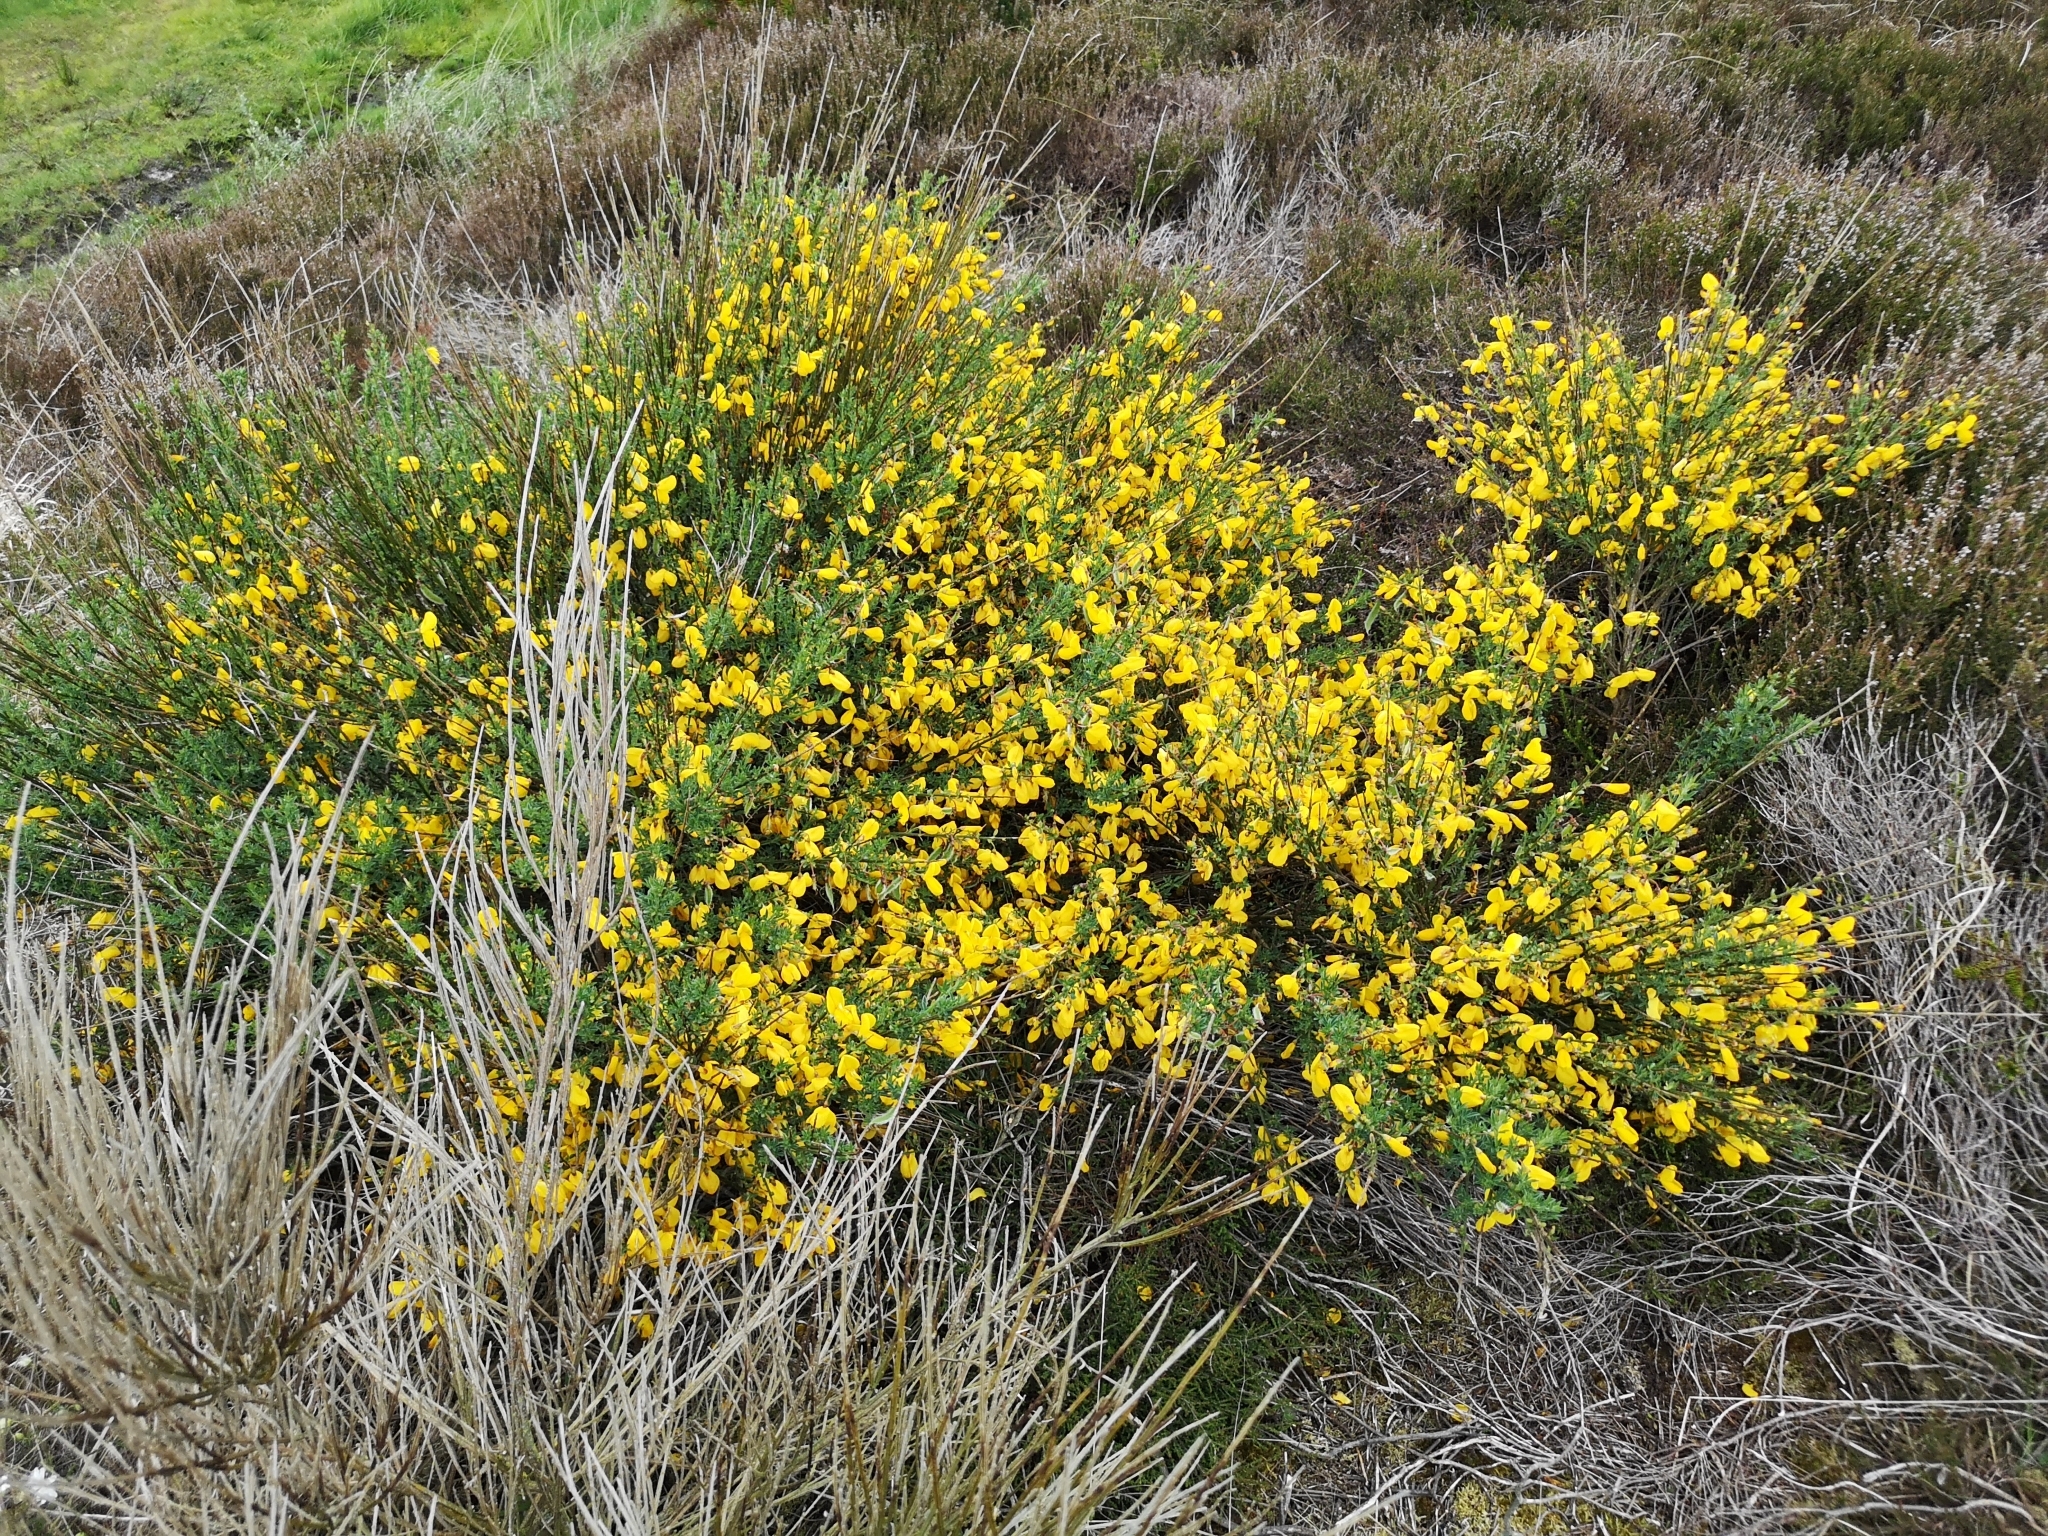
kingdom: Plantae
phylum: Tracheophyta
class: Magnoliopsida
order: Fabales
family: Fabaceae
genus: Cytisus
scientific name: Cytisus scoparius
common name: Scotch broom
